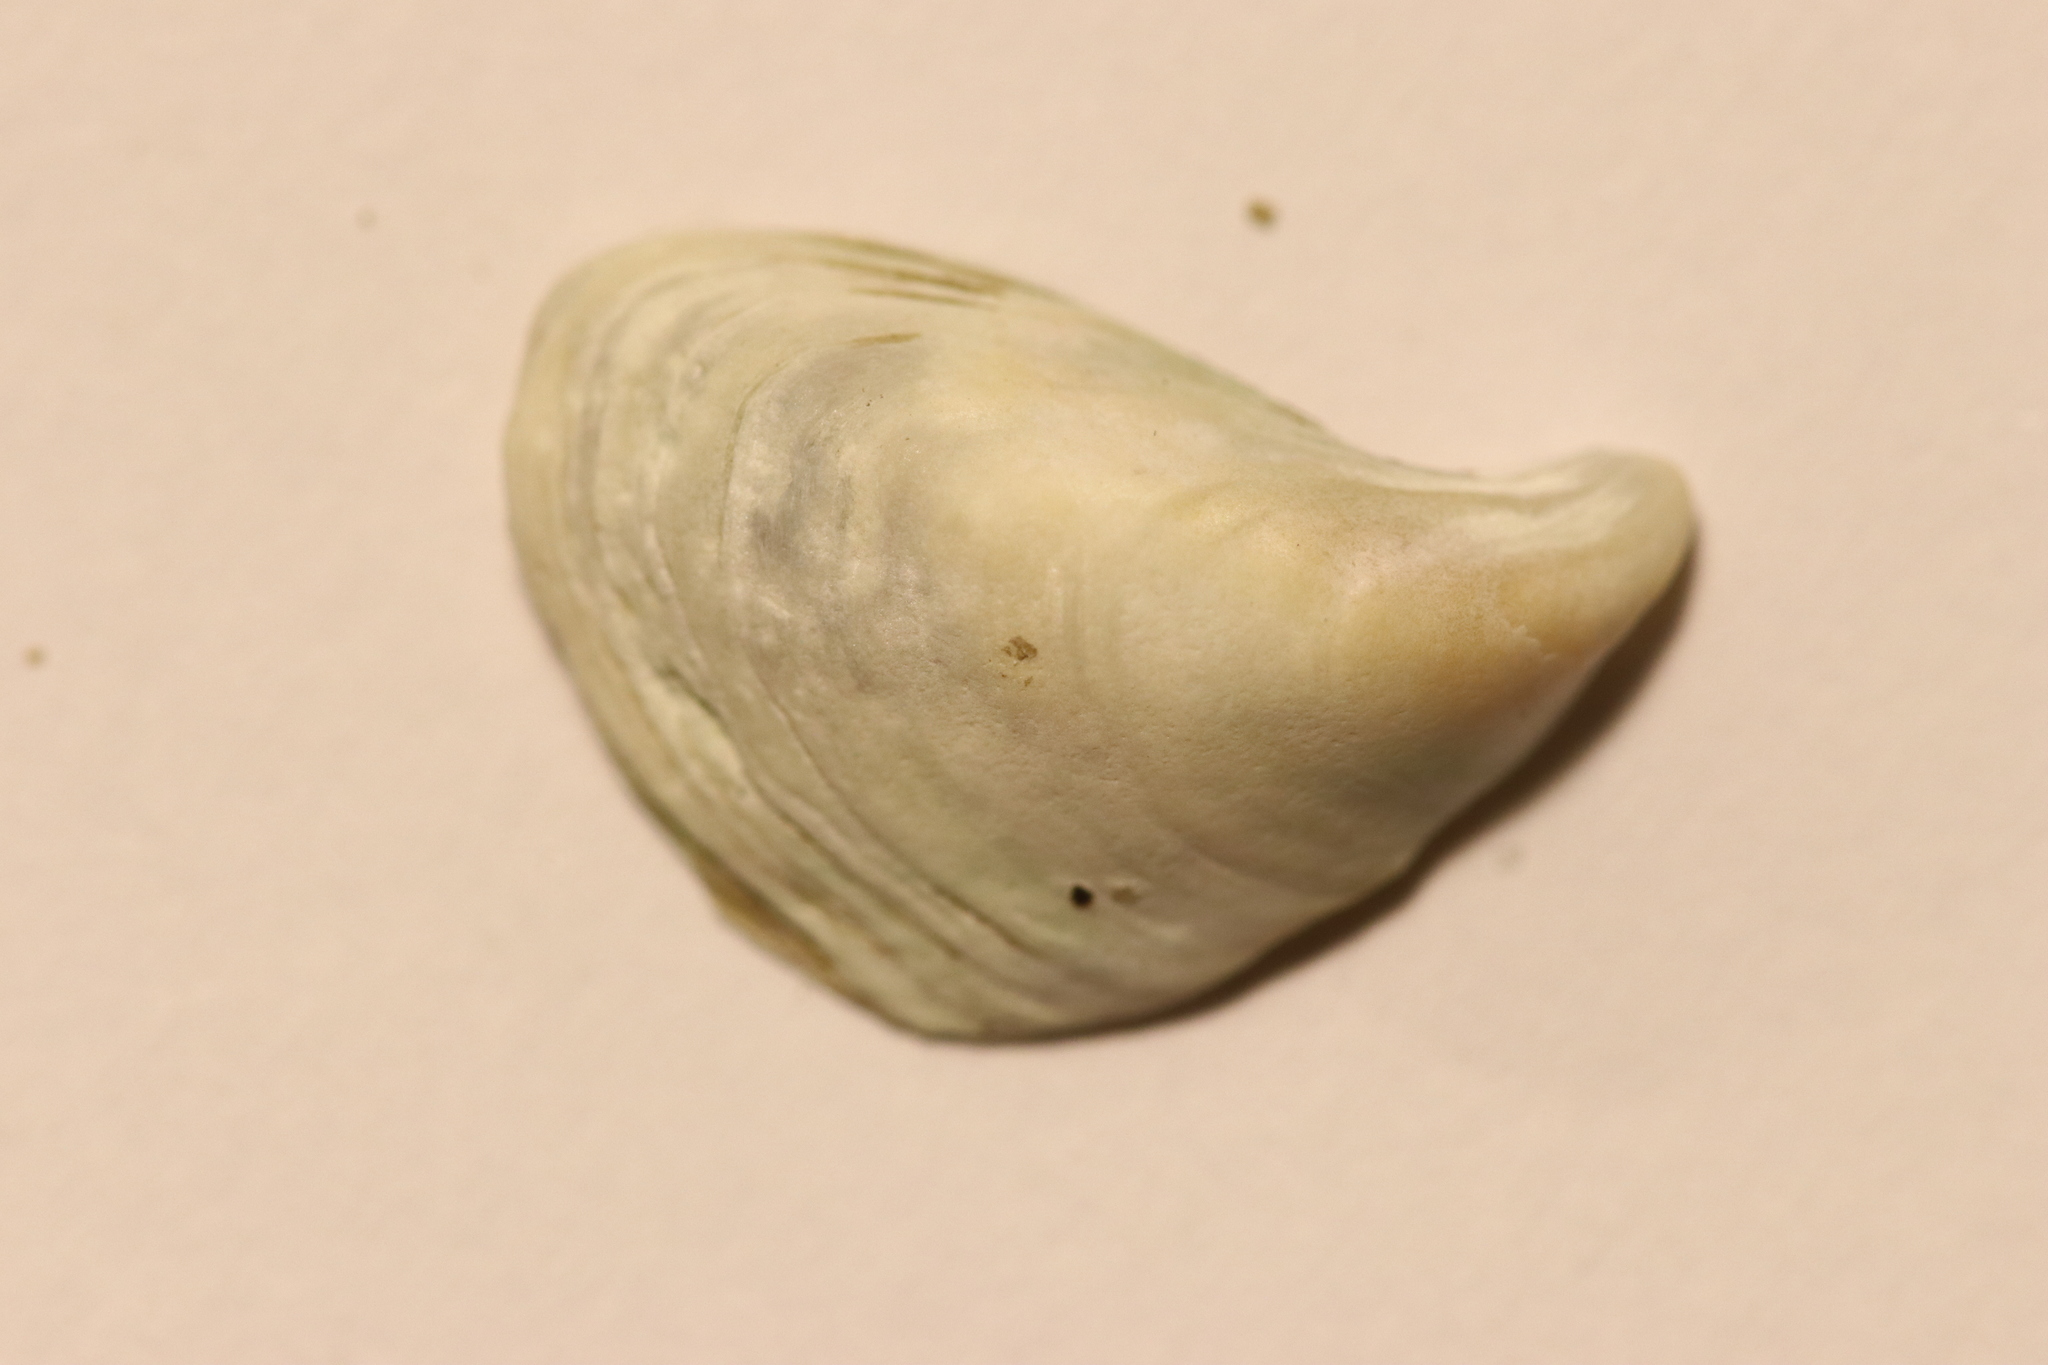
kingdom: Animalia
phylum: Mollusca
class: Bivalvia
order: Myida
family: Dreissenidae
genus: Dreissena
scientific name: Dreissena bugensis
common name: Quagga mussel
